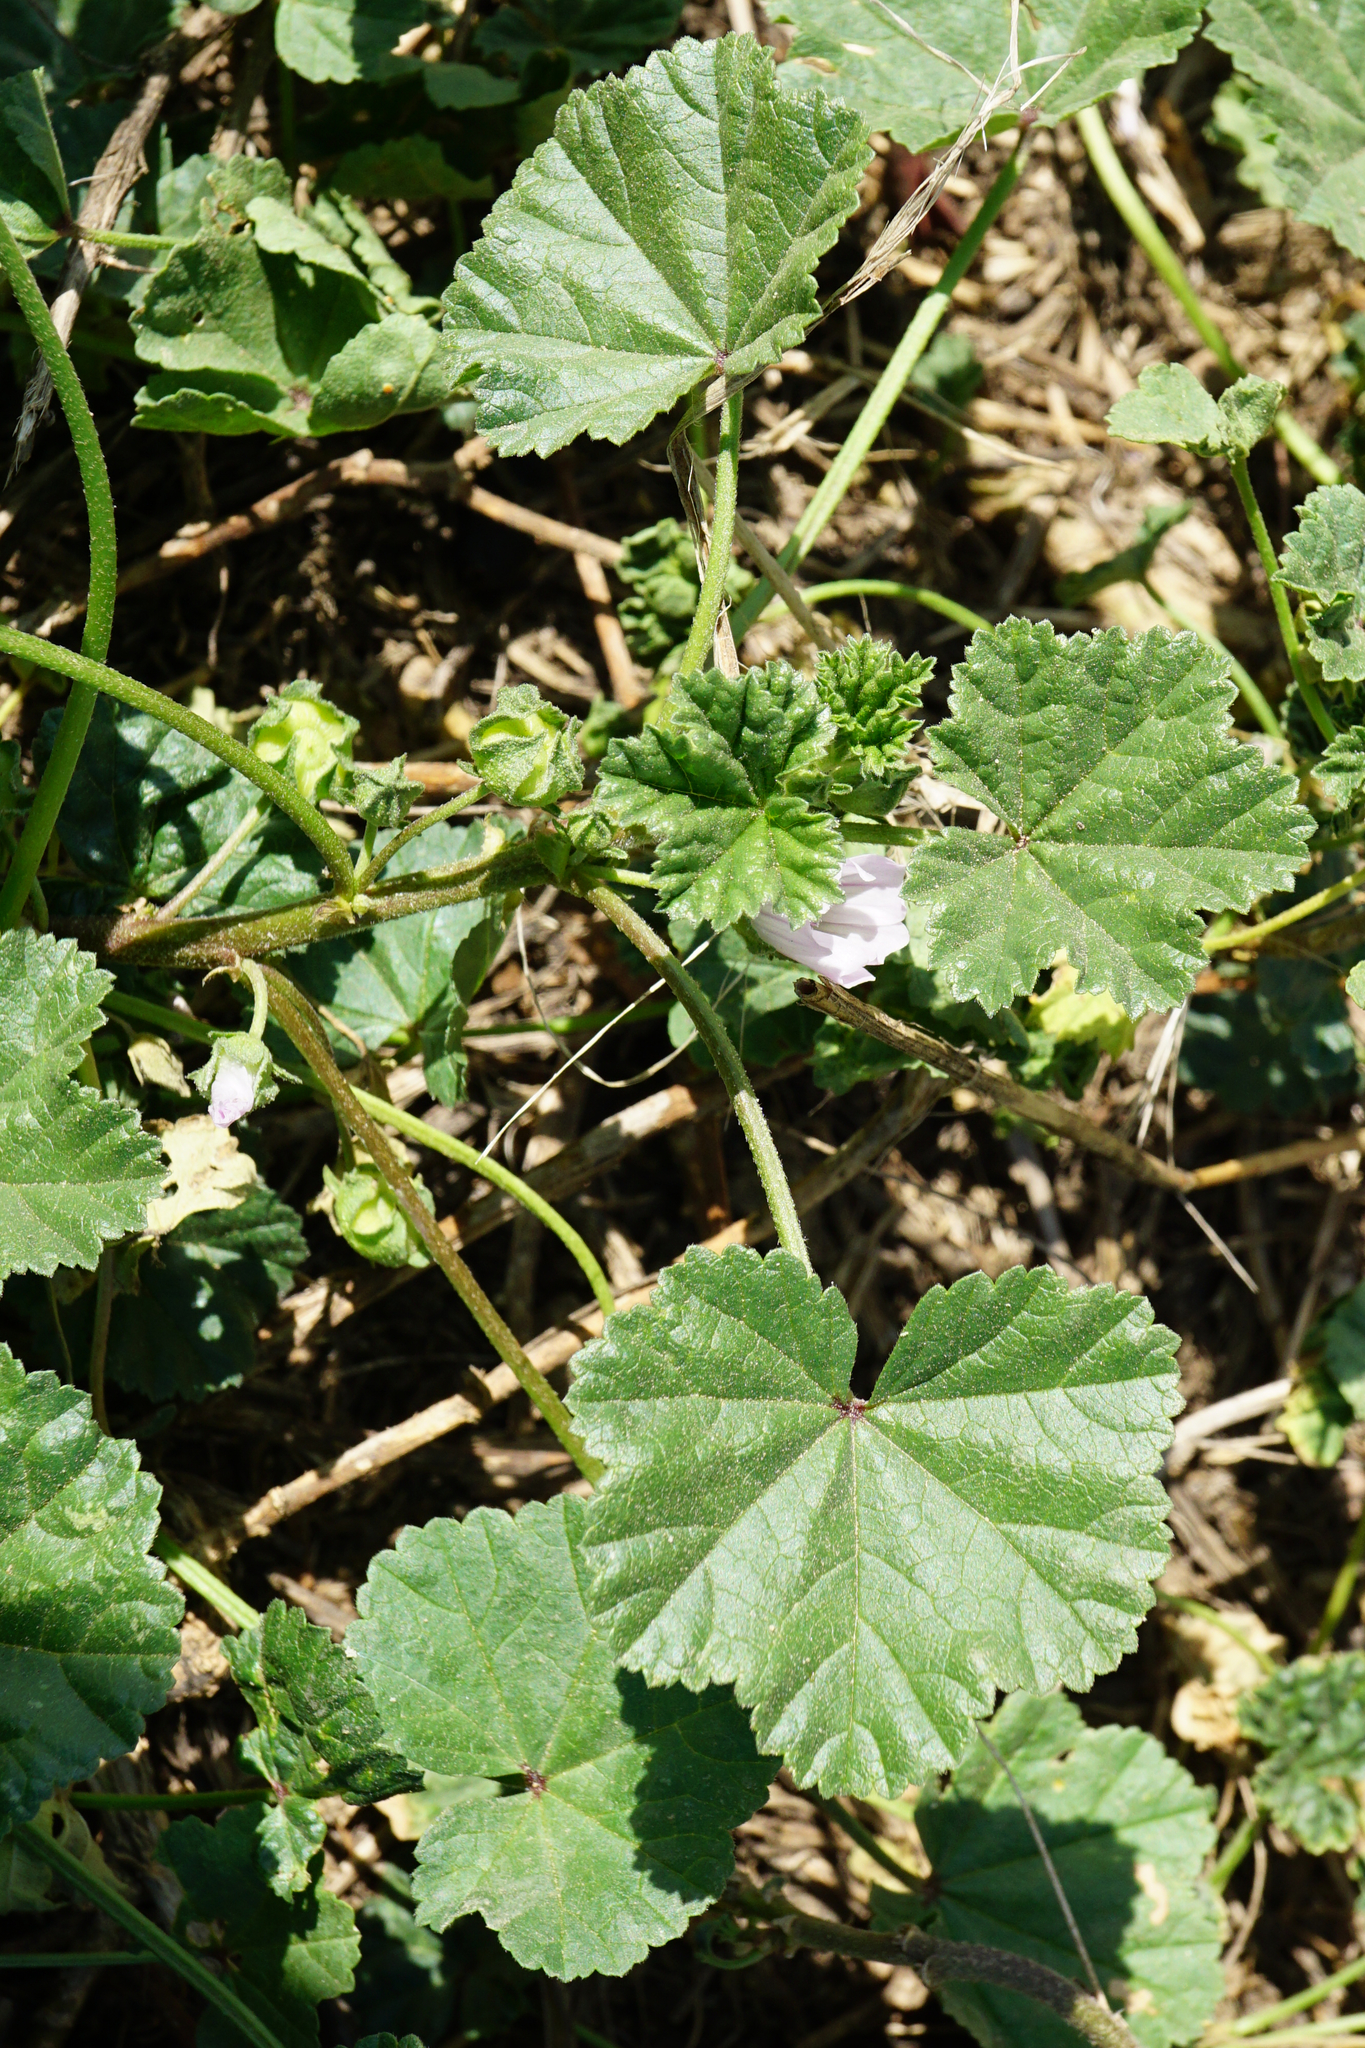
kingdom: Plantae
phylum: Tracheophyta
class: Magnoliopsida
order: Malvales
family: Malvaceae
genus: Malva
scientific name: Malva neglecta
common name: Common mallow
